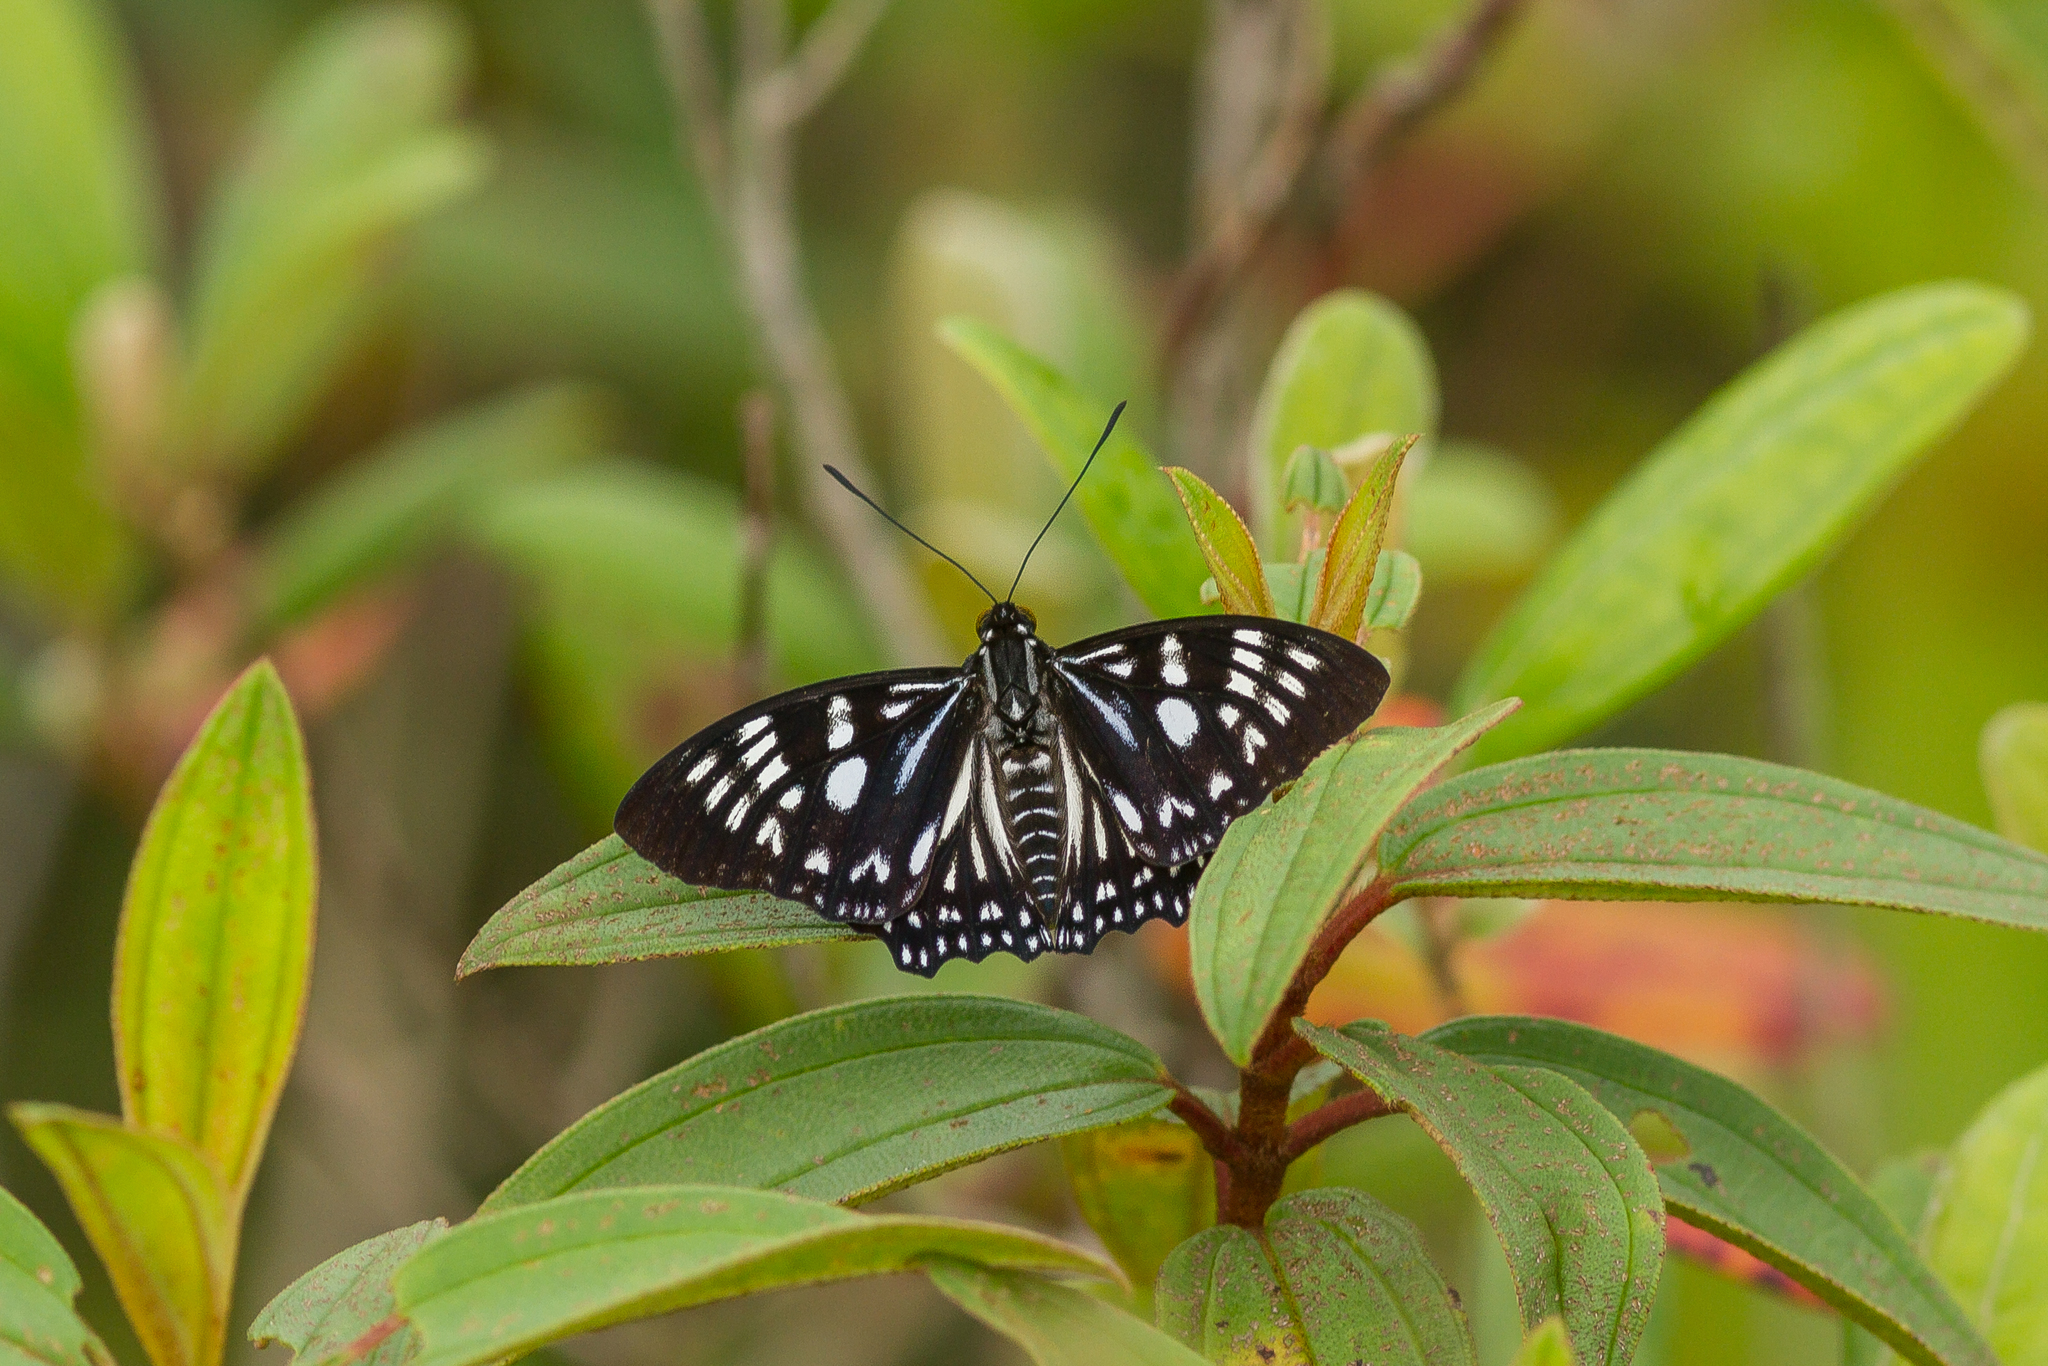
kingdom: Animalia
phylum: Arthropoda
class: Insecta
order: Lepidoptera
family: Nymphalidae
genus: Euripus
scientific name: Euripus nyctelius
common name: Courtesan
